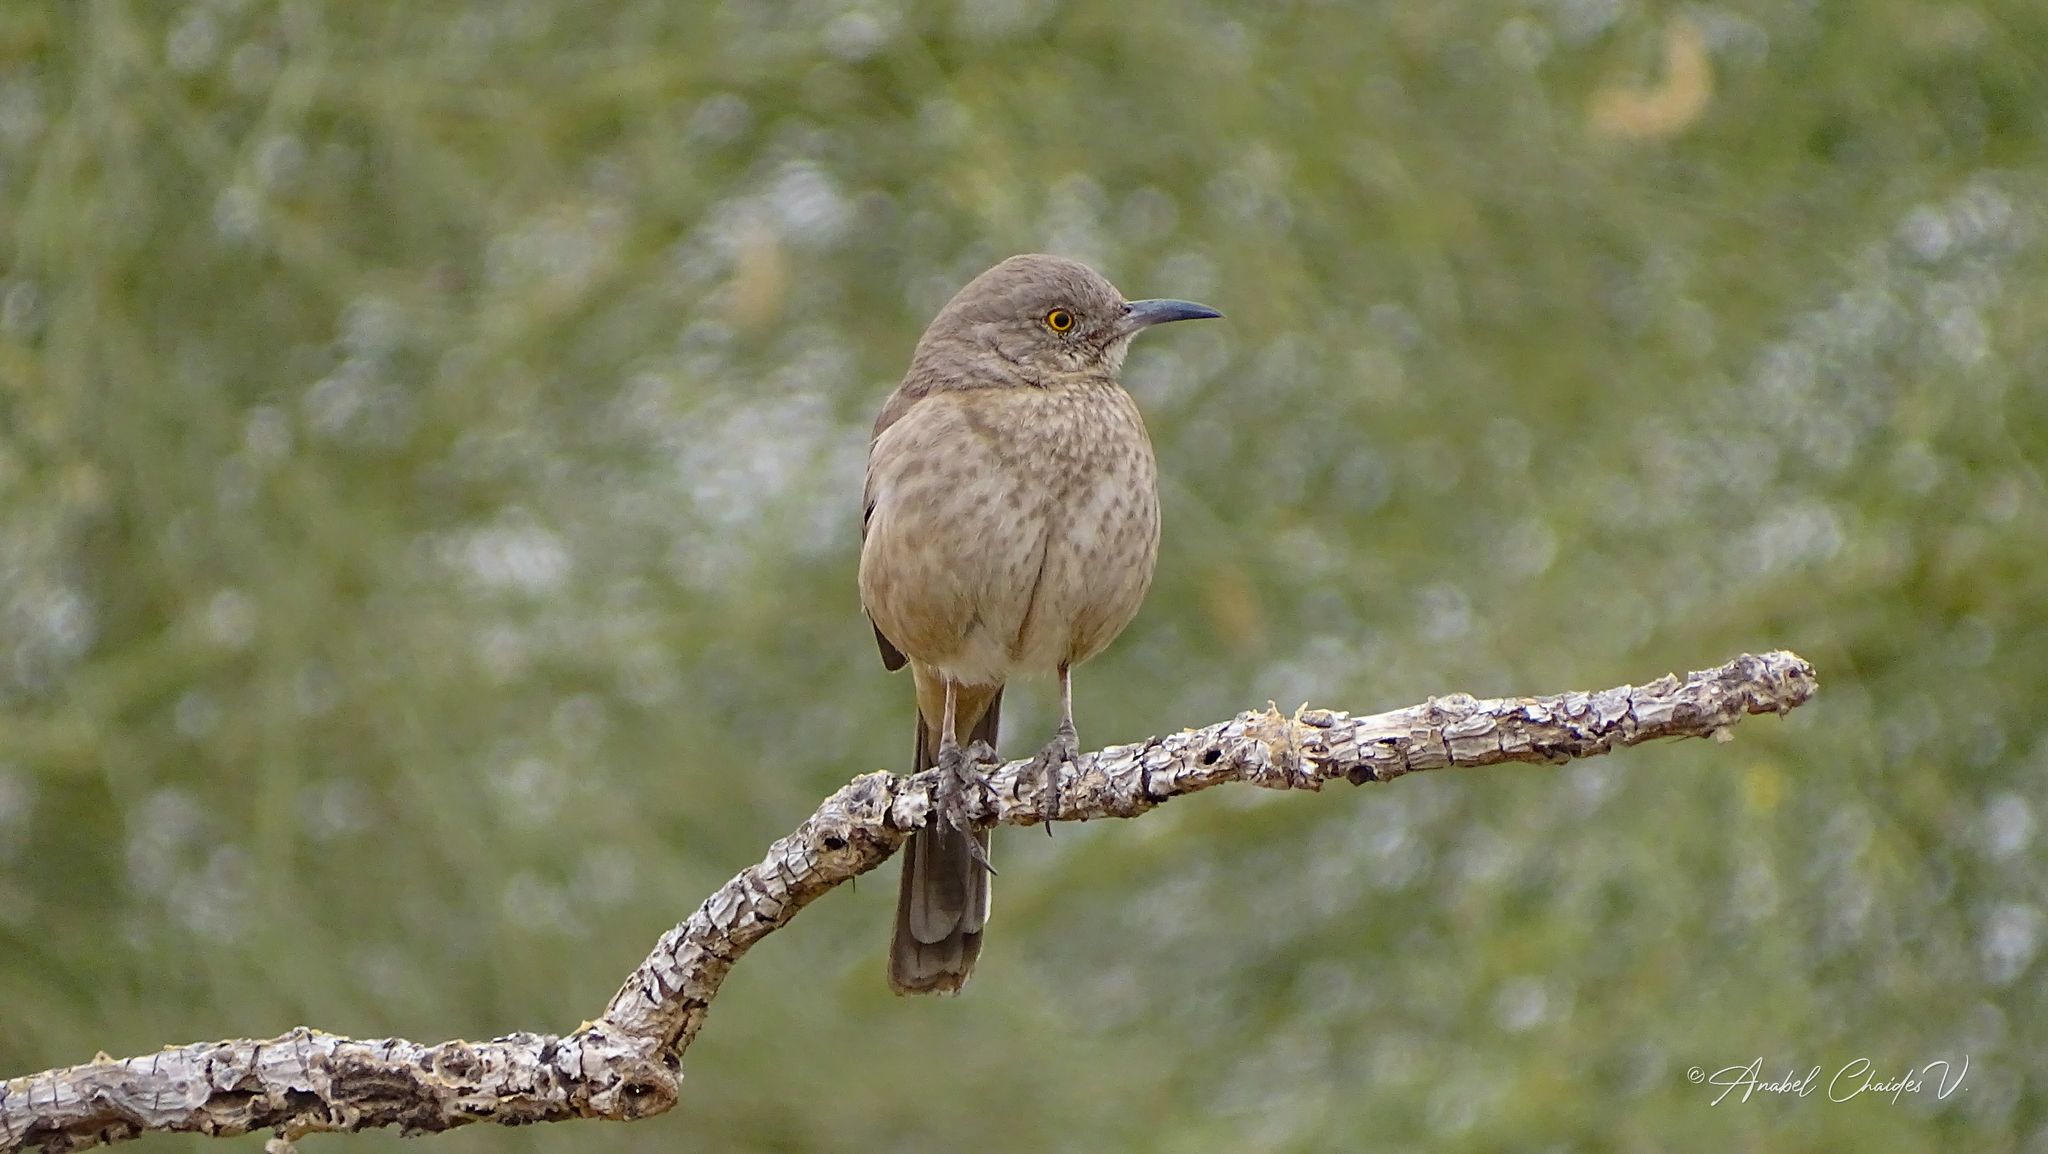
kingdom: Animalia
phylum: Chordata
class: Aves
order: Passeriformes
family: Mimidae
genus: Toxostoma
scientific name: Toxostoma bendirei
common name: Bendire's thrasher
